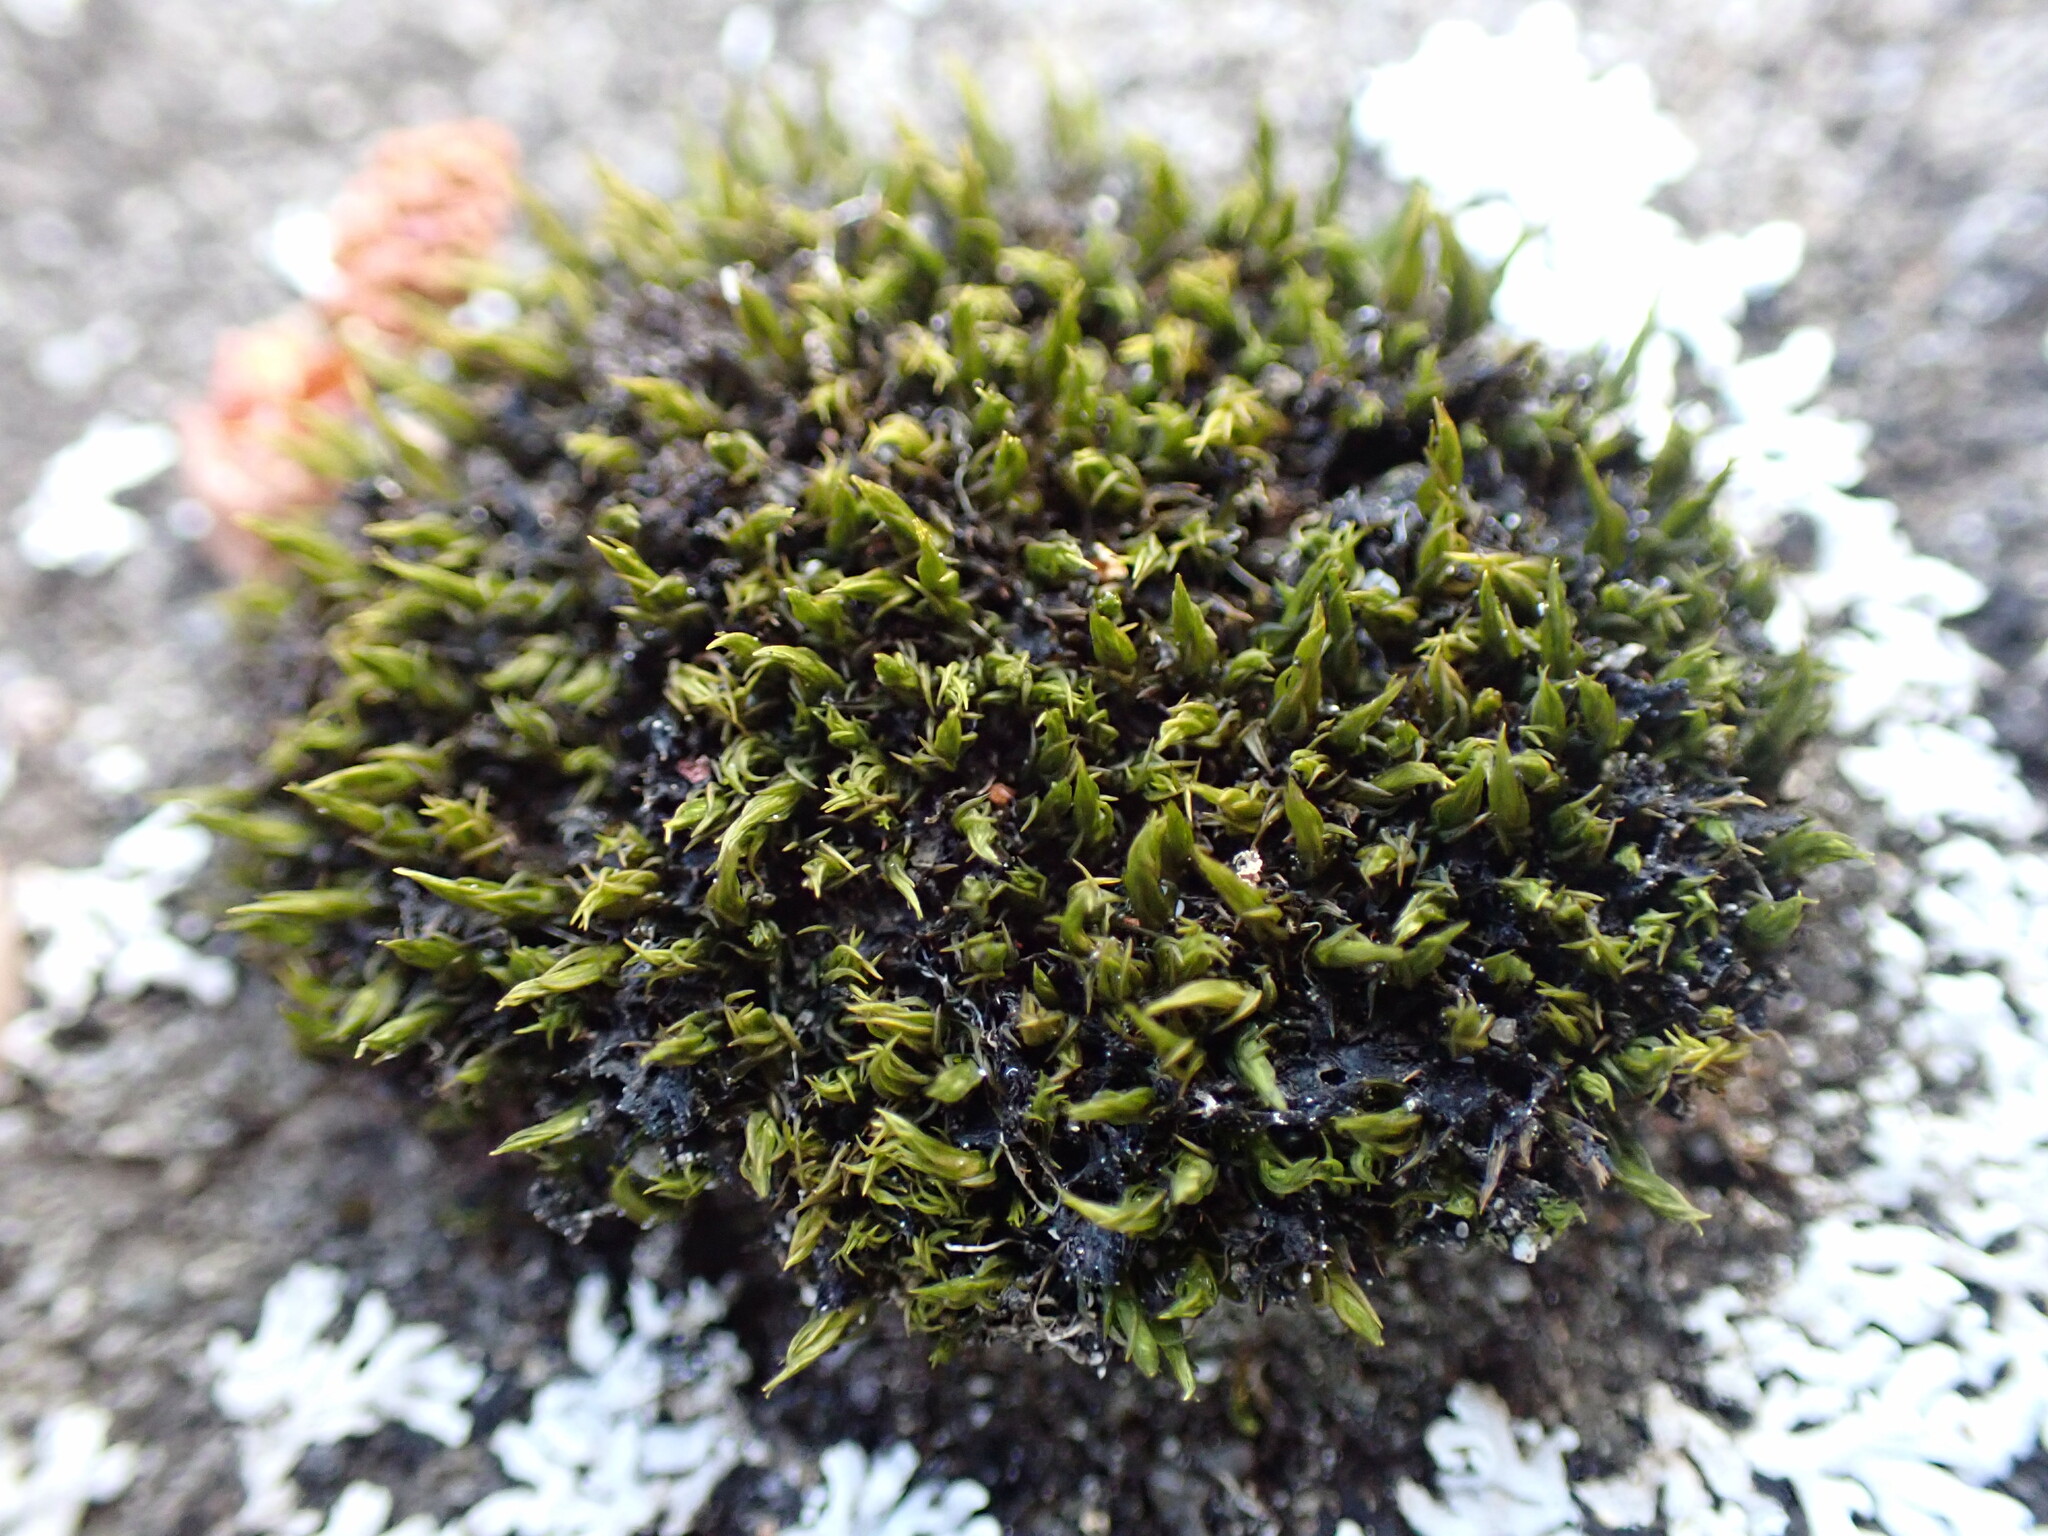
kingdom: Plantae
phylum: Bryophyta
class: Bryopsida
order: Grimmiales
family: Grimmiaceae
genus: Schistidium
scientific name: Schistidium maritimum
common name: Seaside bloom moss
